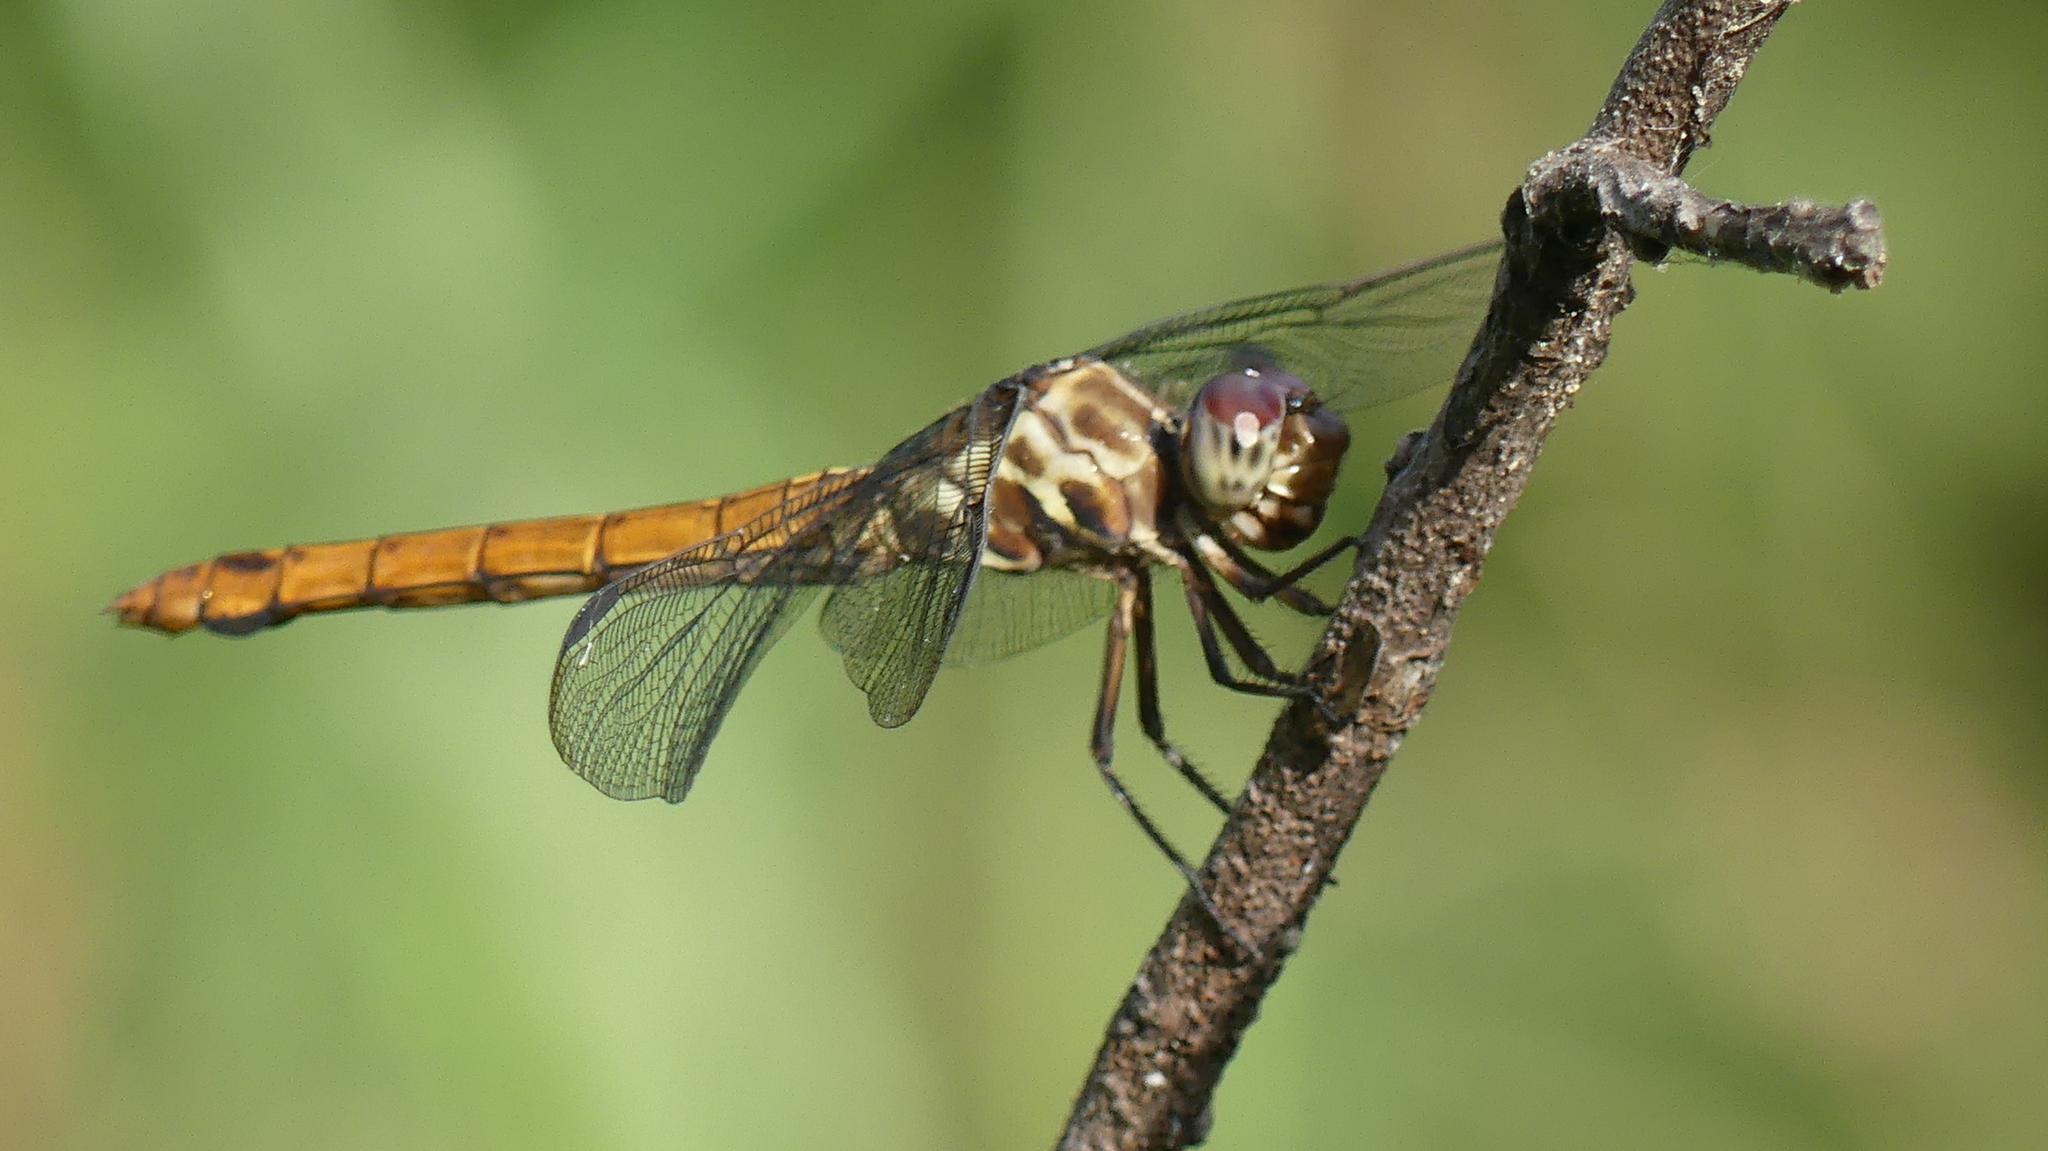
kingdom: Animalia
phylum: Arthropoda
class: Insecta
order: Odonata
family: Libellulidae
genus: Orthemis
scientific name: Orthemis ferruginea
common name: Roseate skimmer
